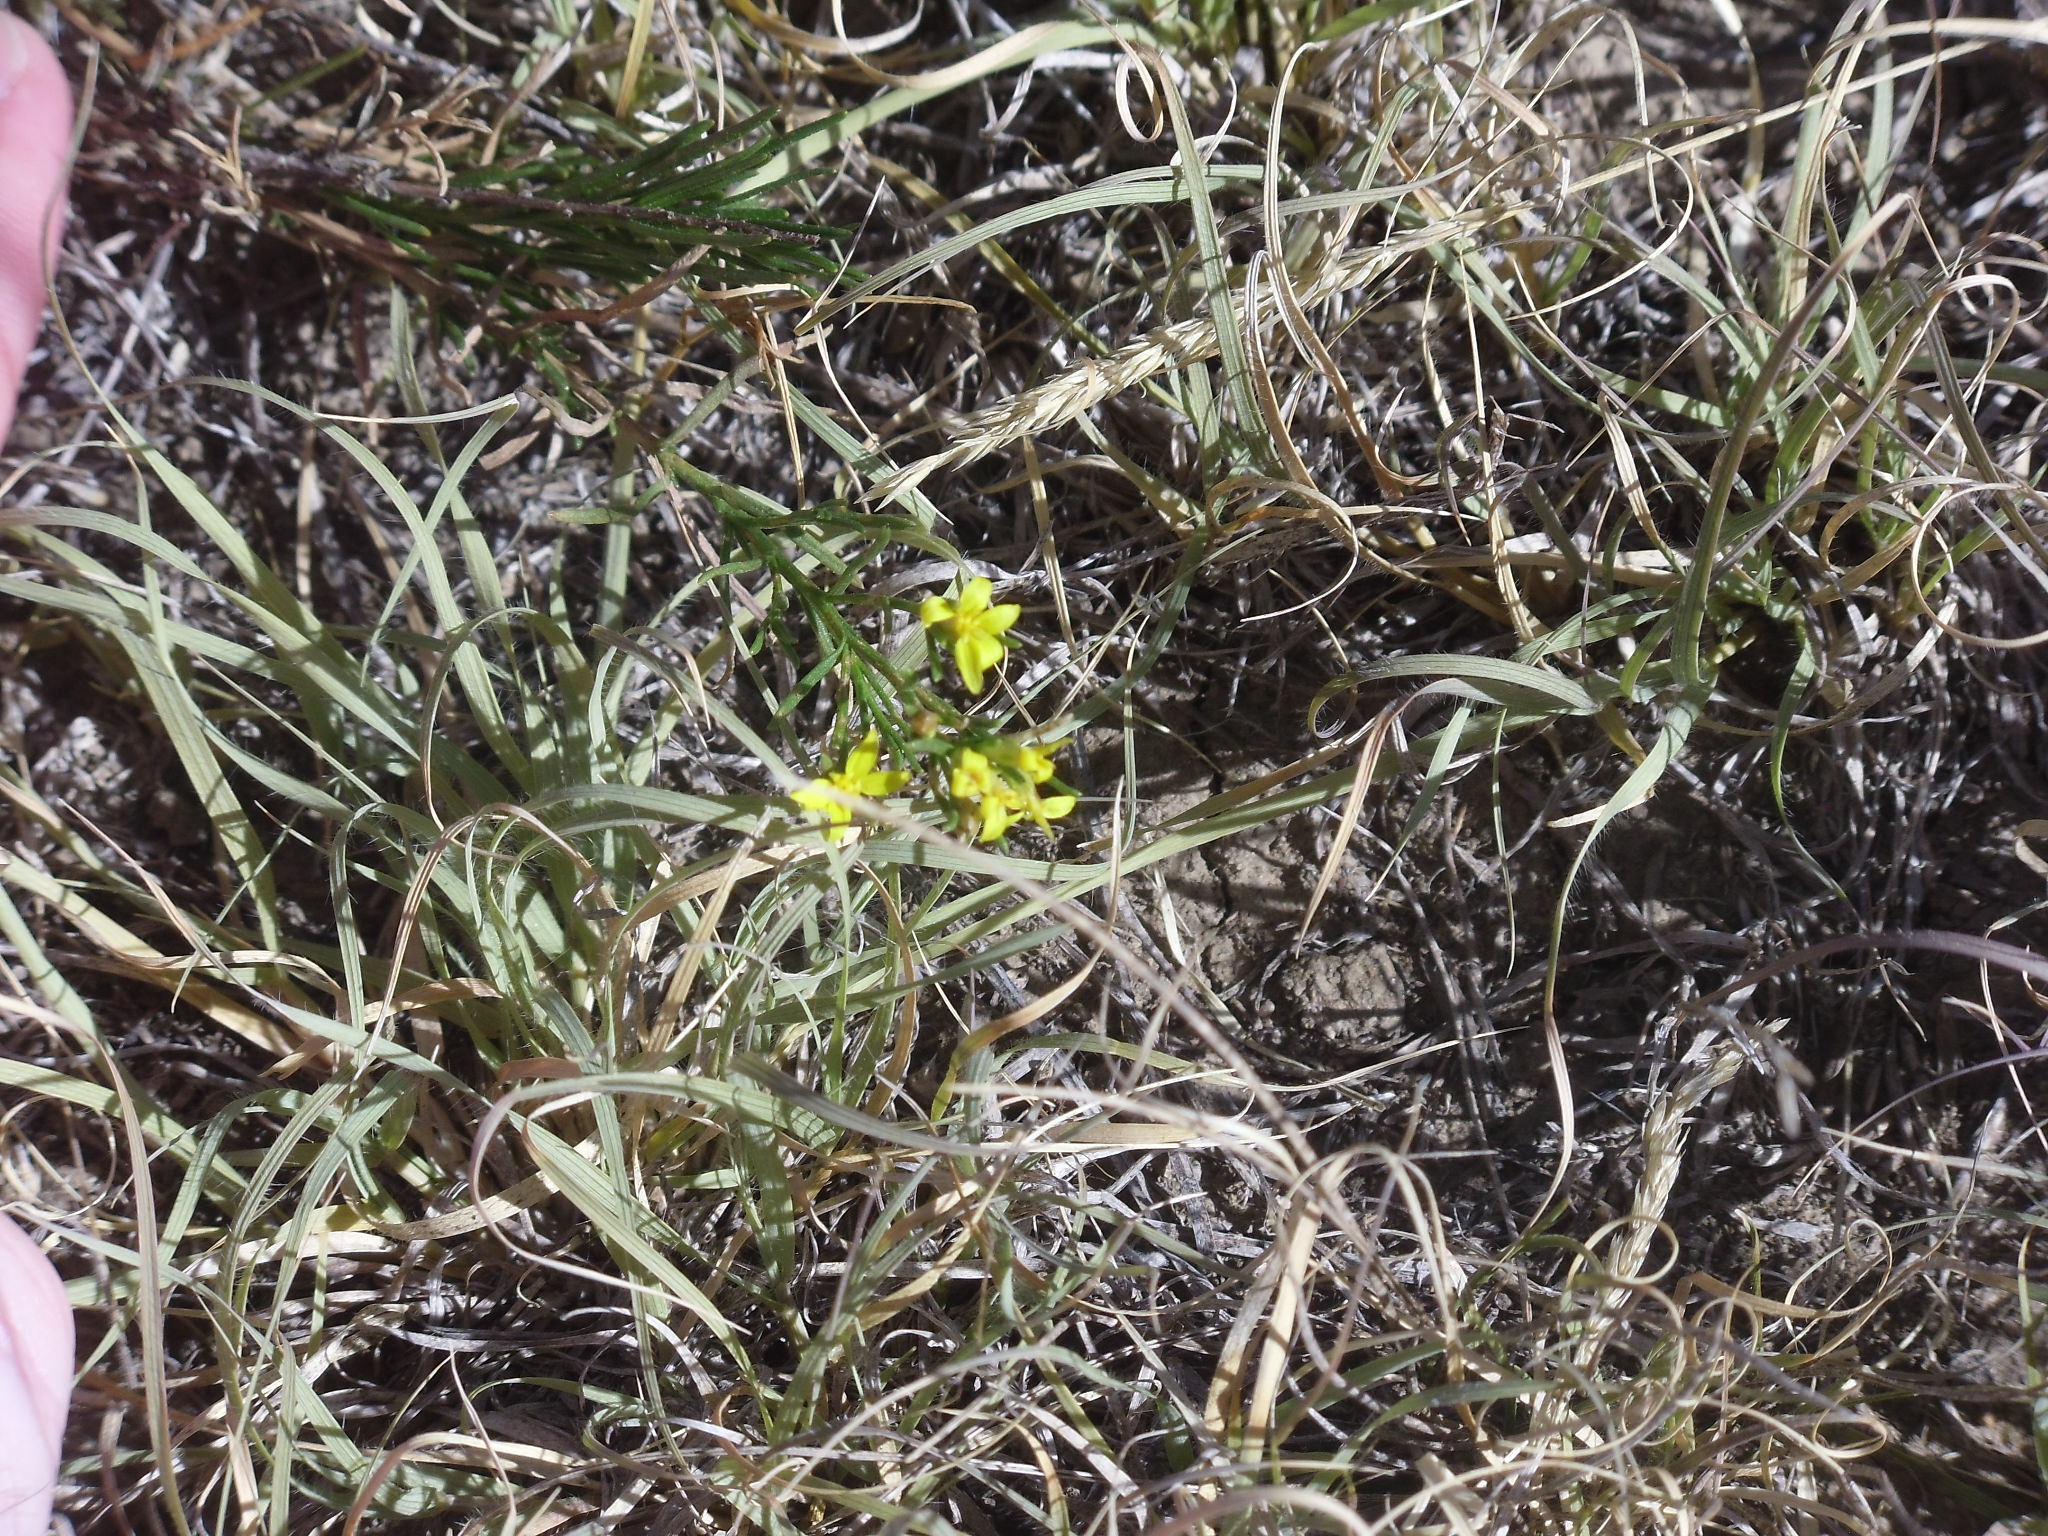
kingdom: Plantae
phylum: Tracheophyta
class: Magnoliopsida
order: Asterales
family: Asteraceae
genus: Gutierrezia
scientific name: Gutierrezia sarothrae
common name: Broom snakeweed
